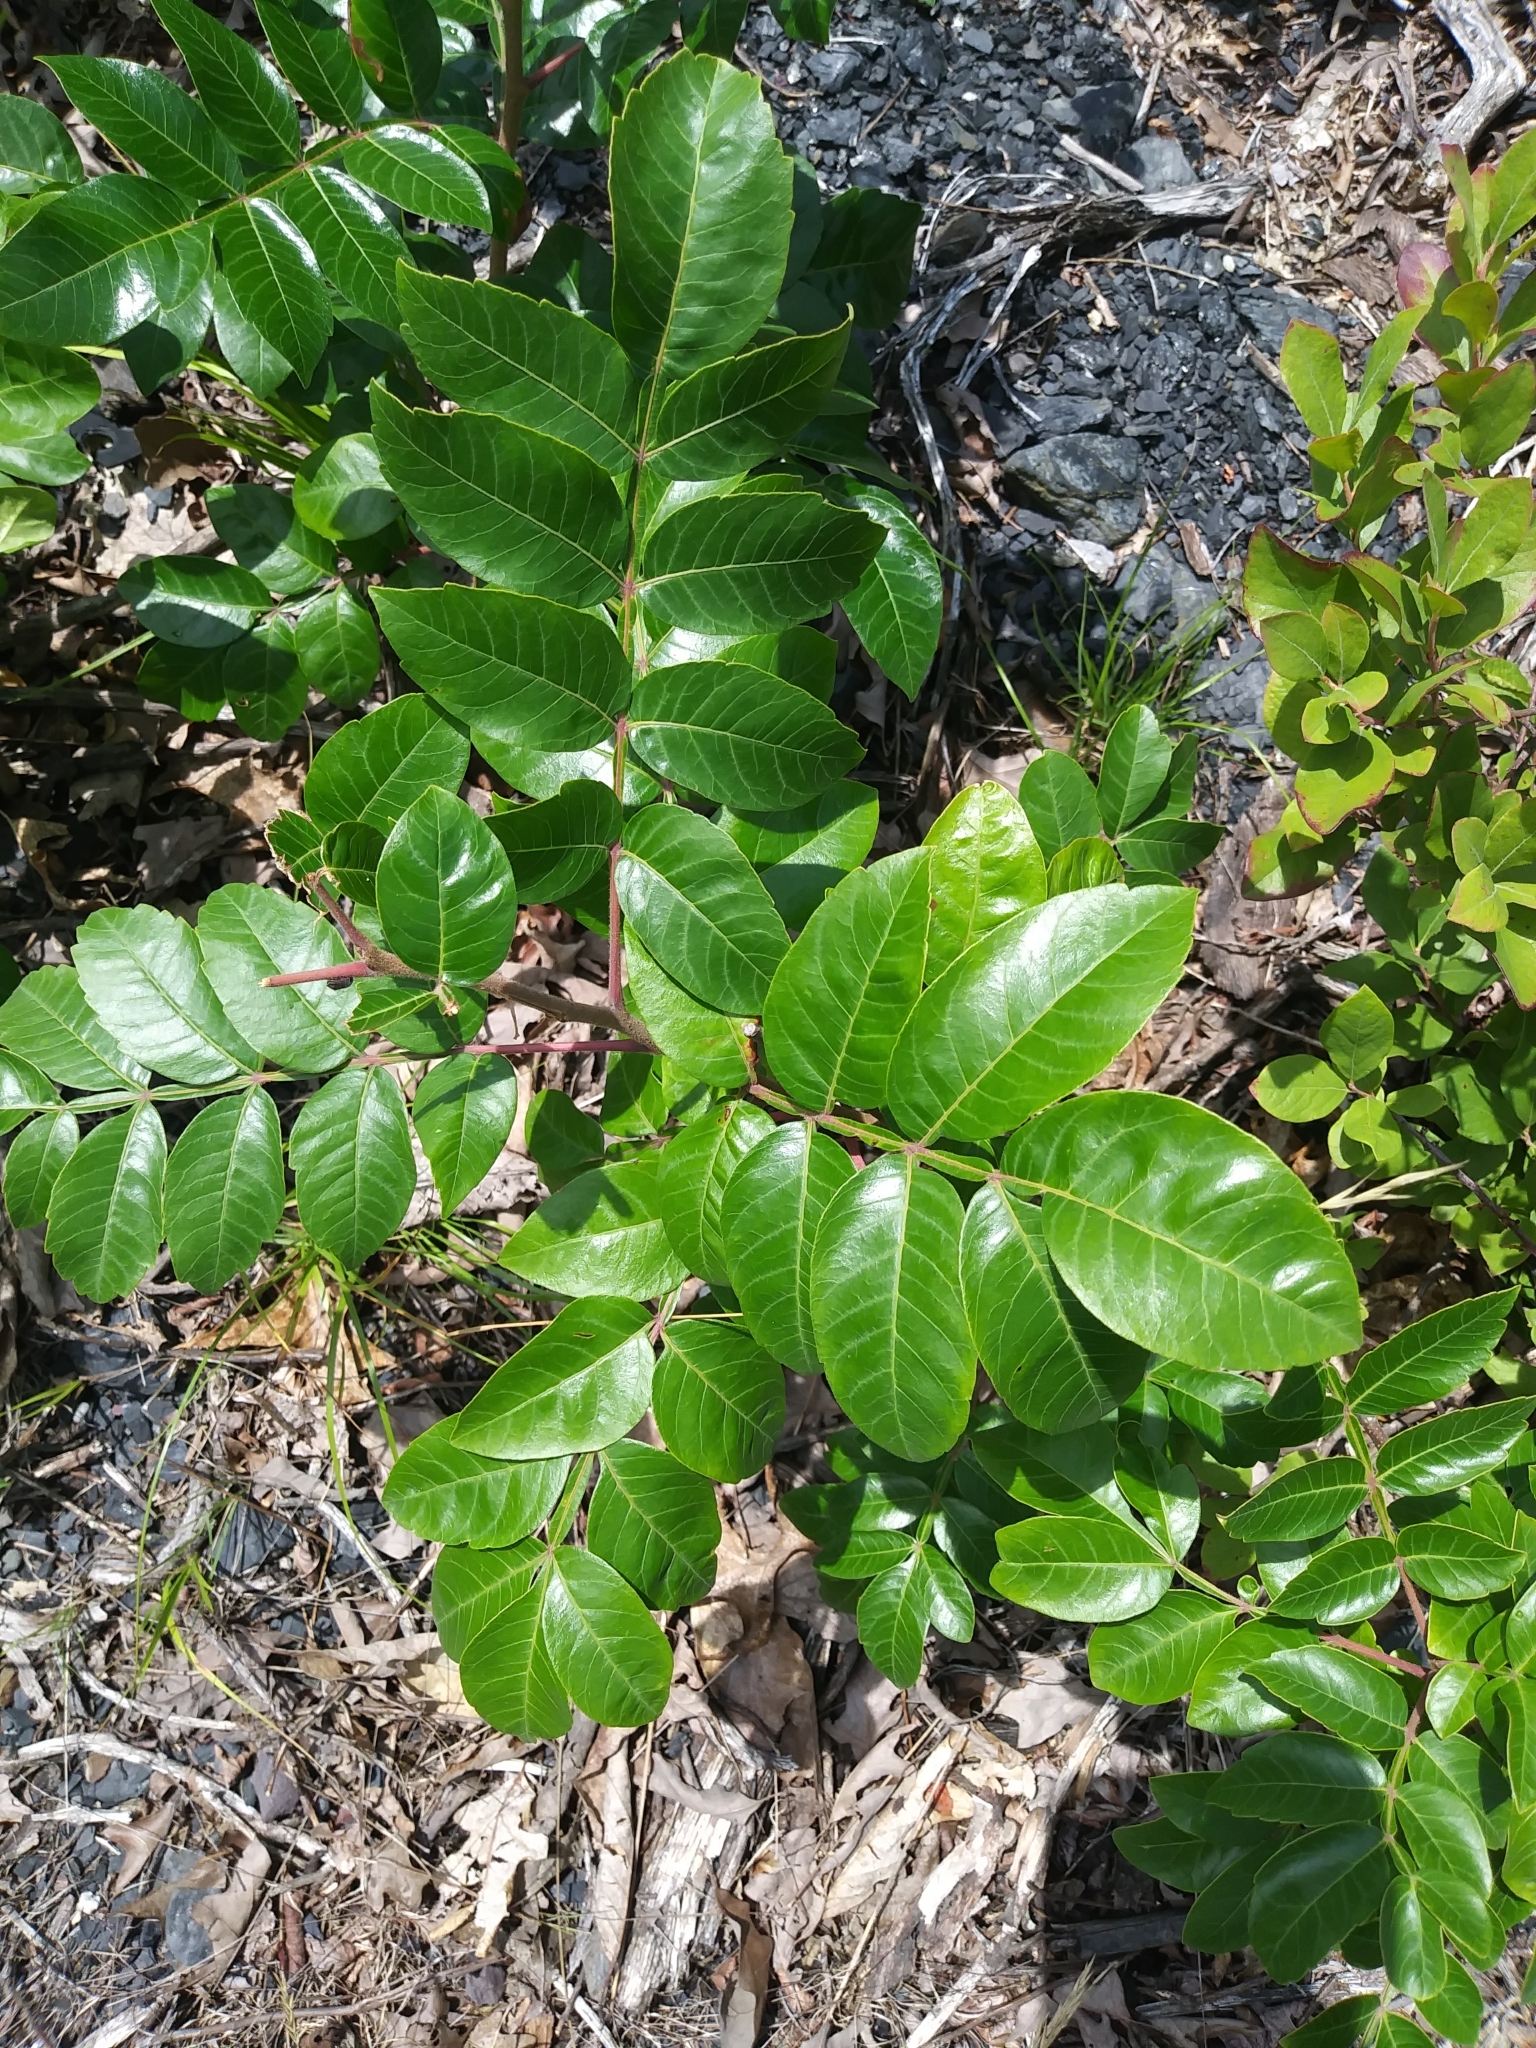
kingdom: Plantae
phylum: Tracheophyta
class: Magnoliopsida
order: Sapindales
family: Anacardiaceae
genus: Rhus
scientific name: Rhus copallina
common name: Shining sumac
